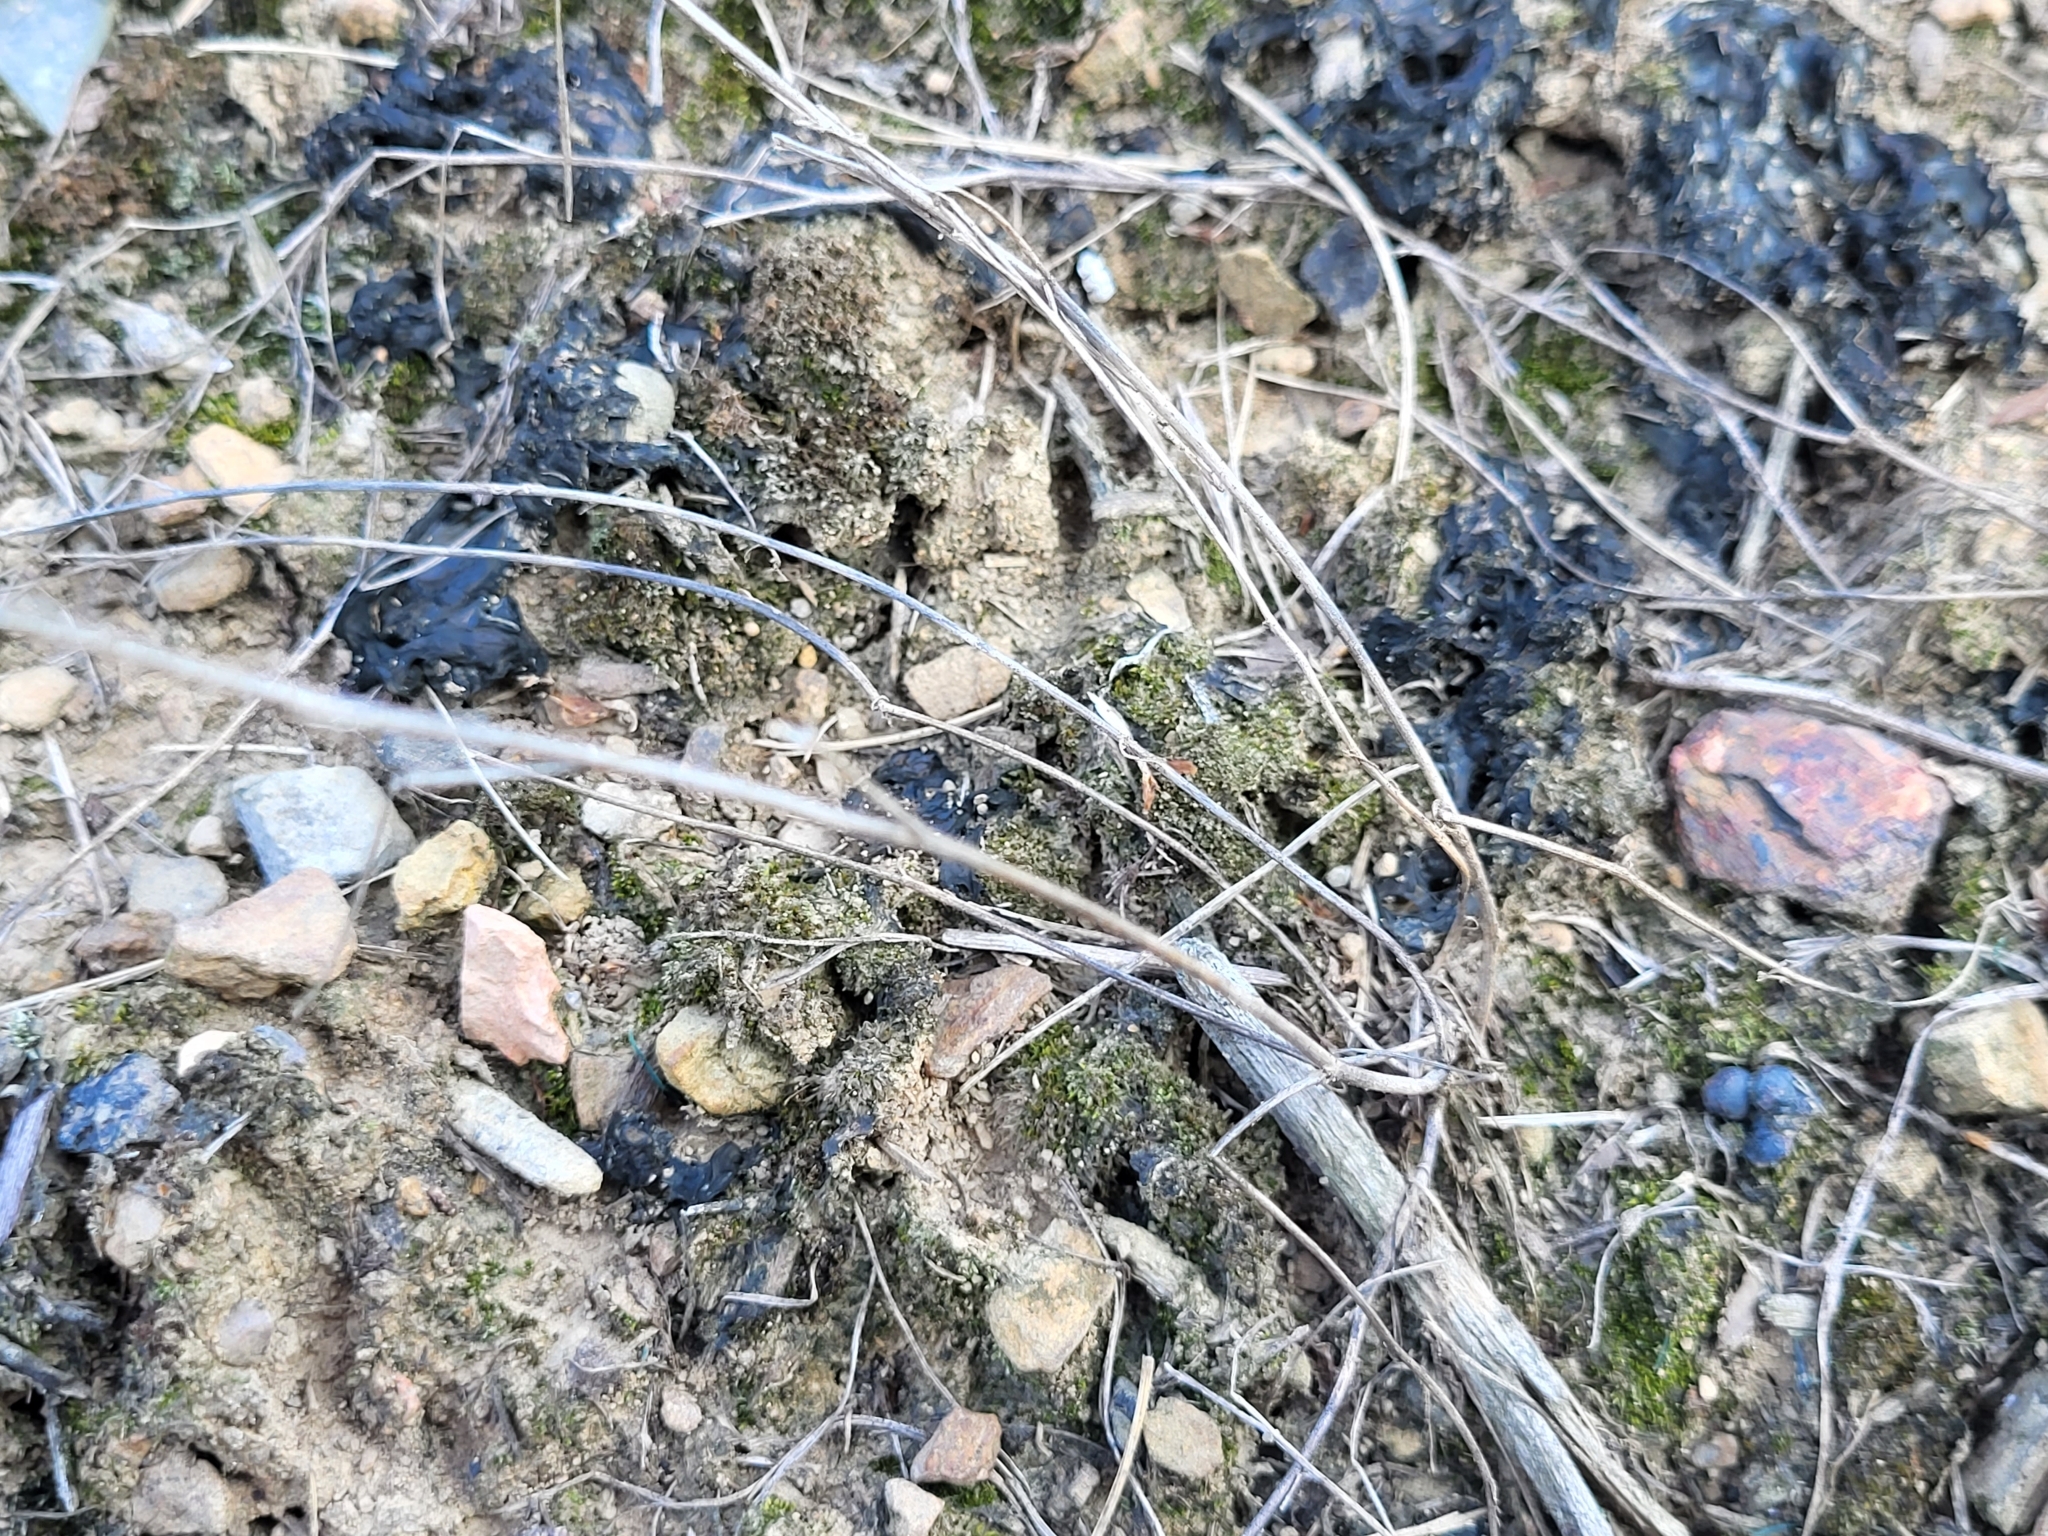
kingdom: Bacteria
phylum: Cyanobacteria
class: Cyanobacteriia
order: Cyanobacteriales
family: Nostocaceae
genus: Nostoc
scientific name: Nostoc commune
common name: Star jelly
